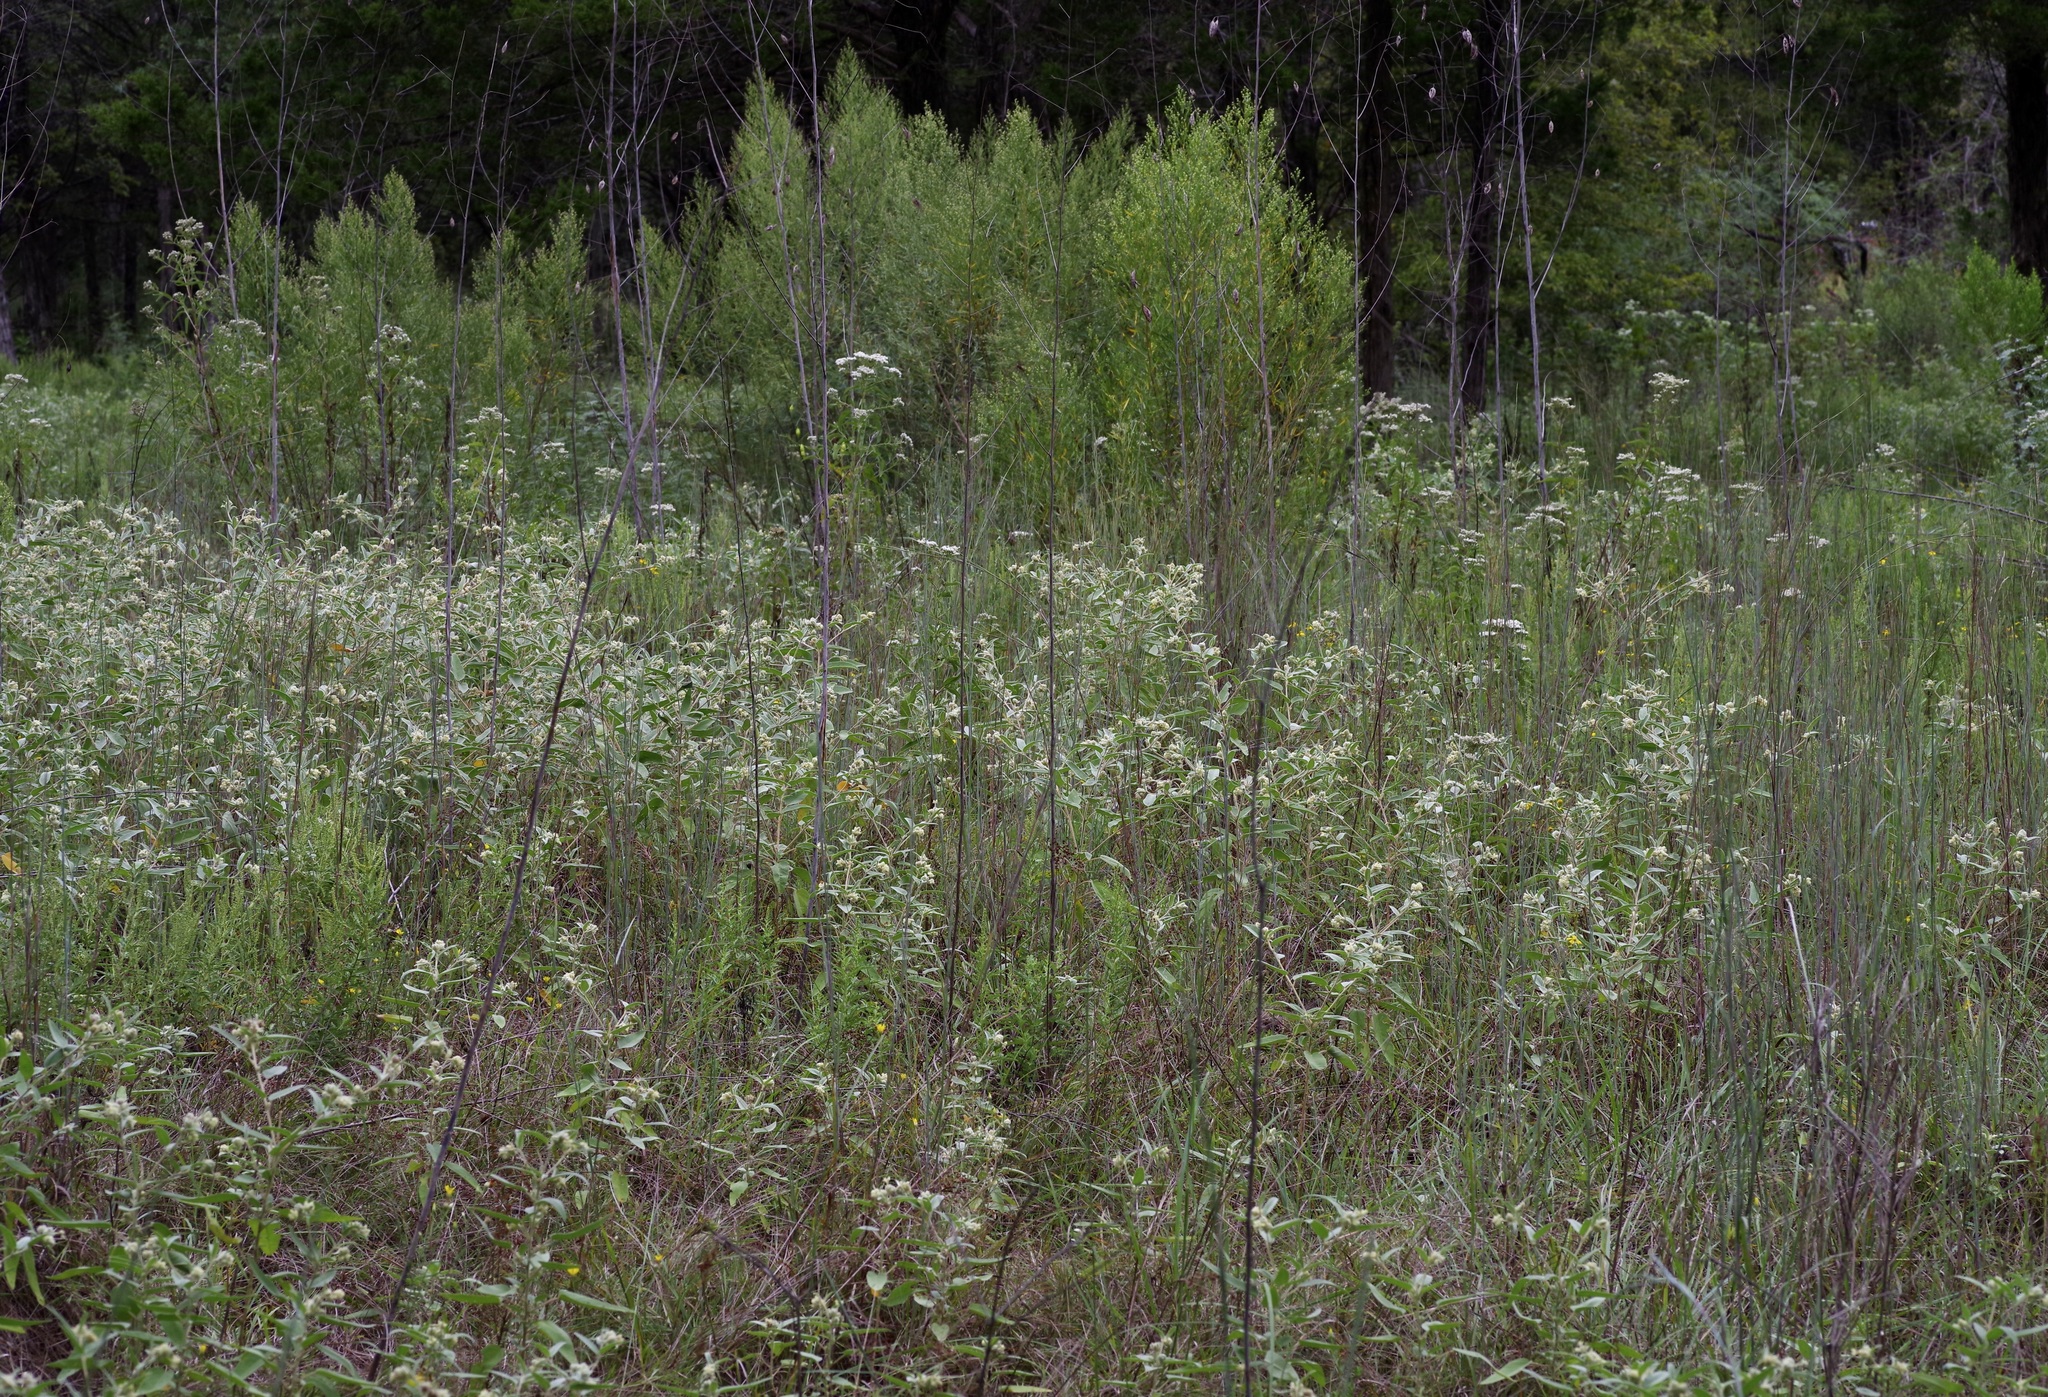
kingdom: Plantae
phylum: Tracheophyta
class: Magnoliopsida
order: Malpighiales
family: Euphorbiaceae
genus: Croton
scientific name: Croton lindheimeri
